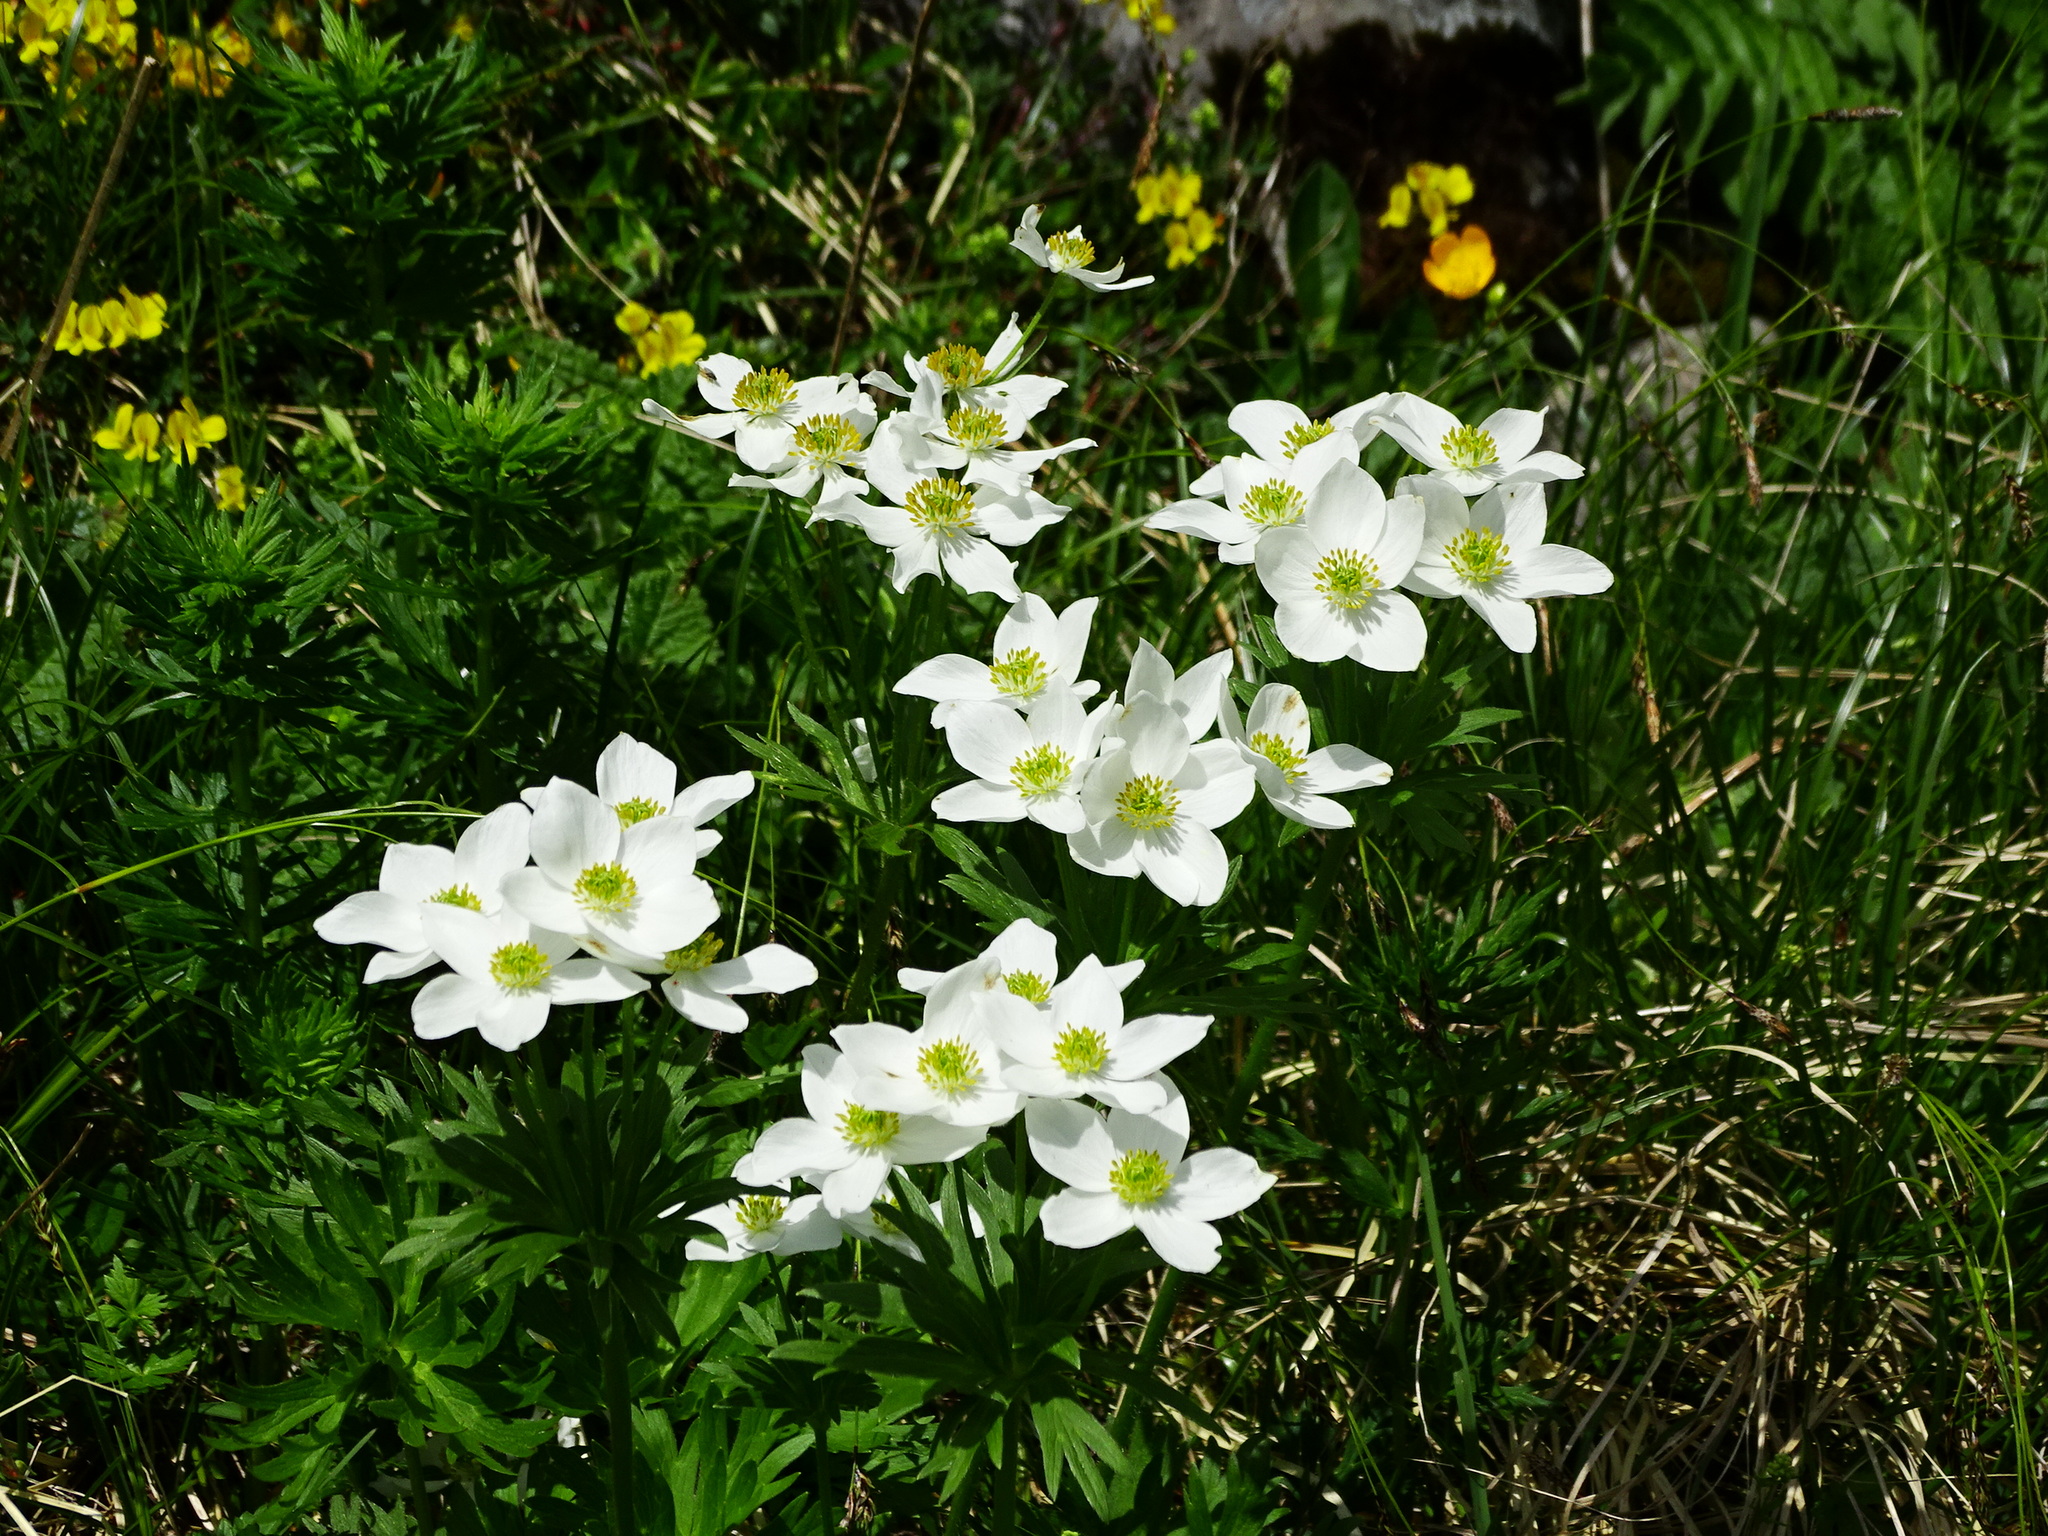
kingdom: Plantae
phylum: Tracheophyta
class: Magnoliopsida
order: Ranunculales
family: Ranunculaceae
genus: Anemonastrum
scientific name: Anemonastrum narcissiflorum
